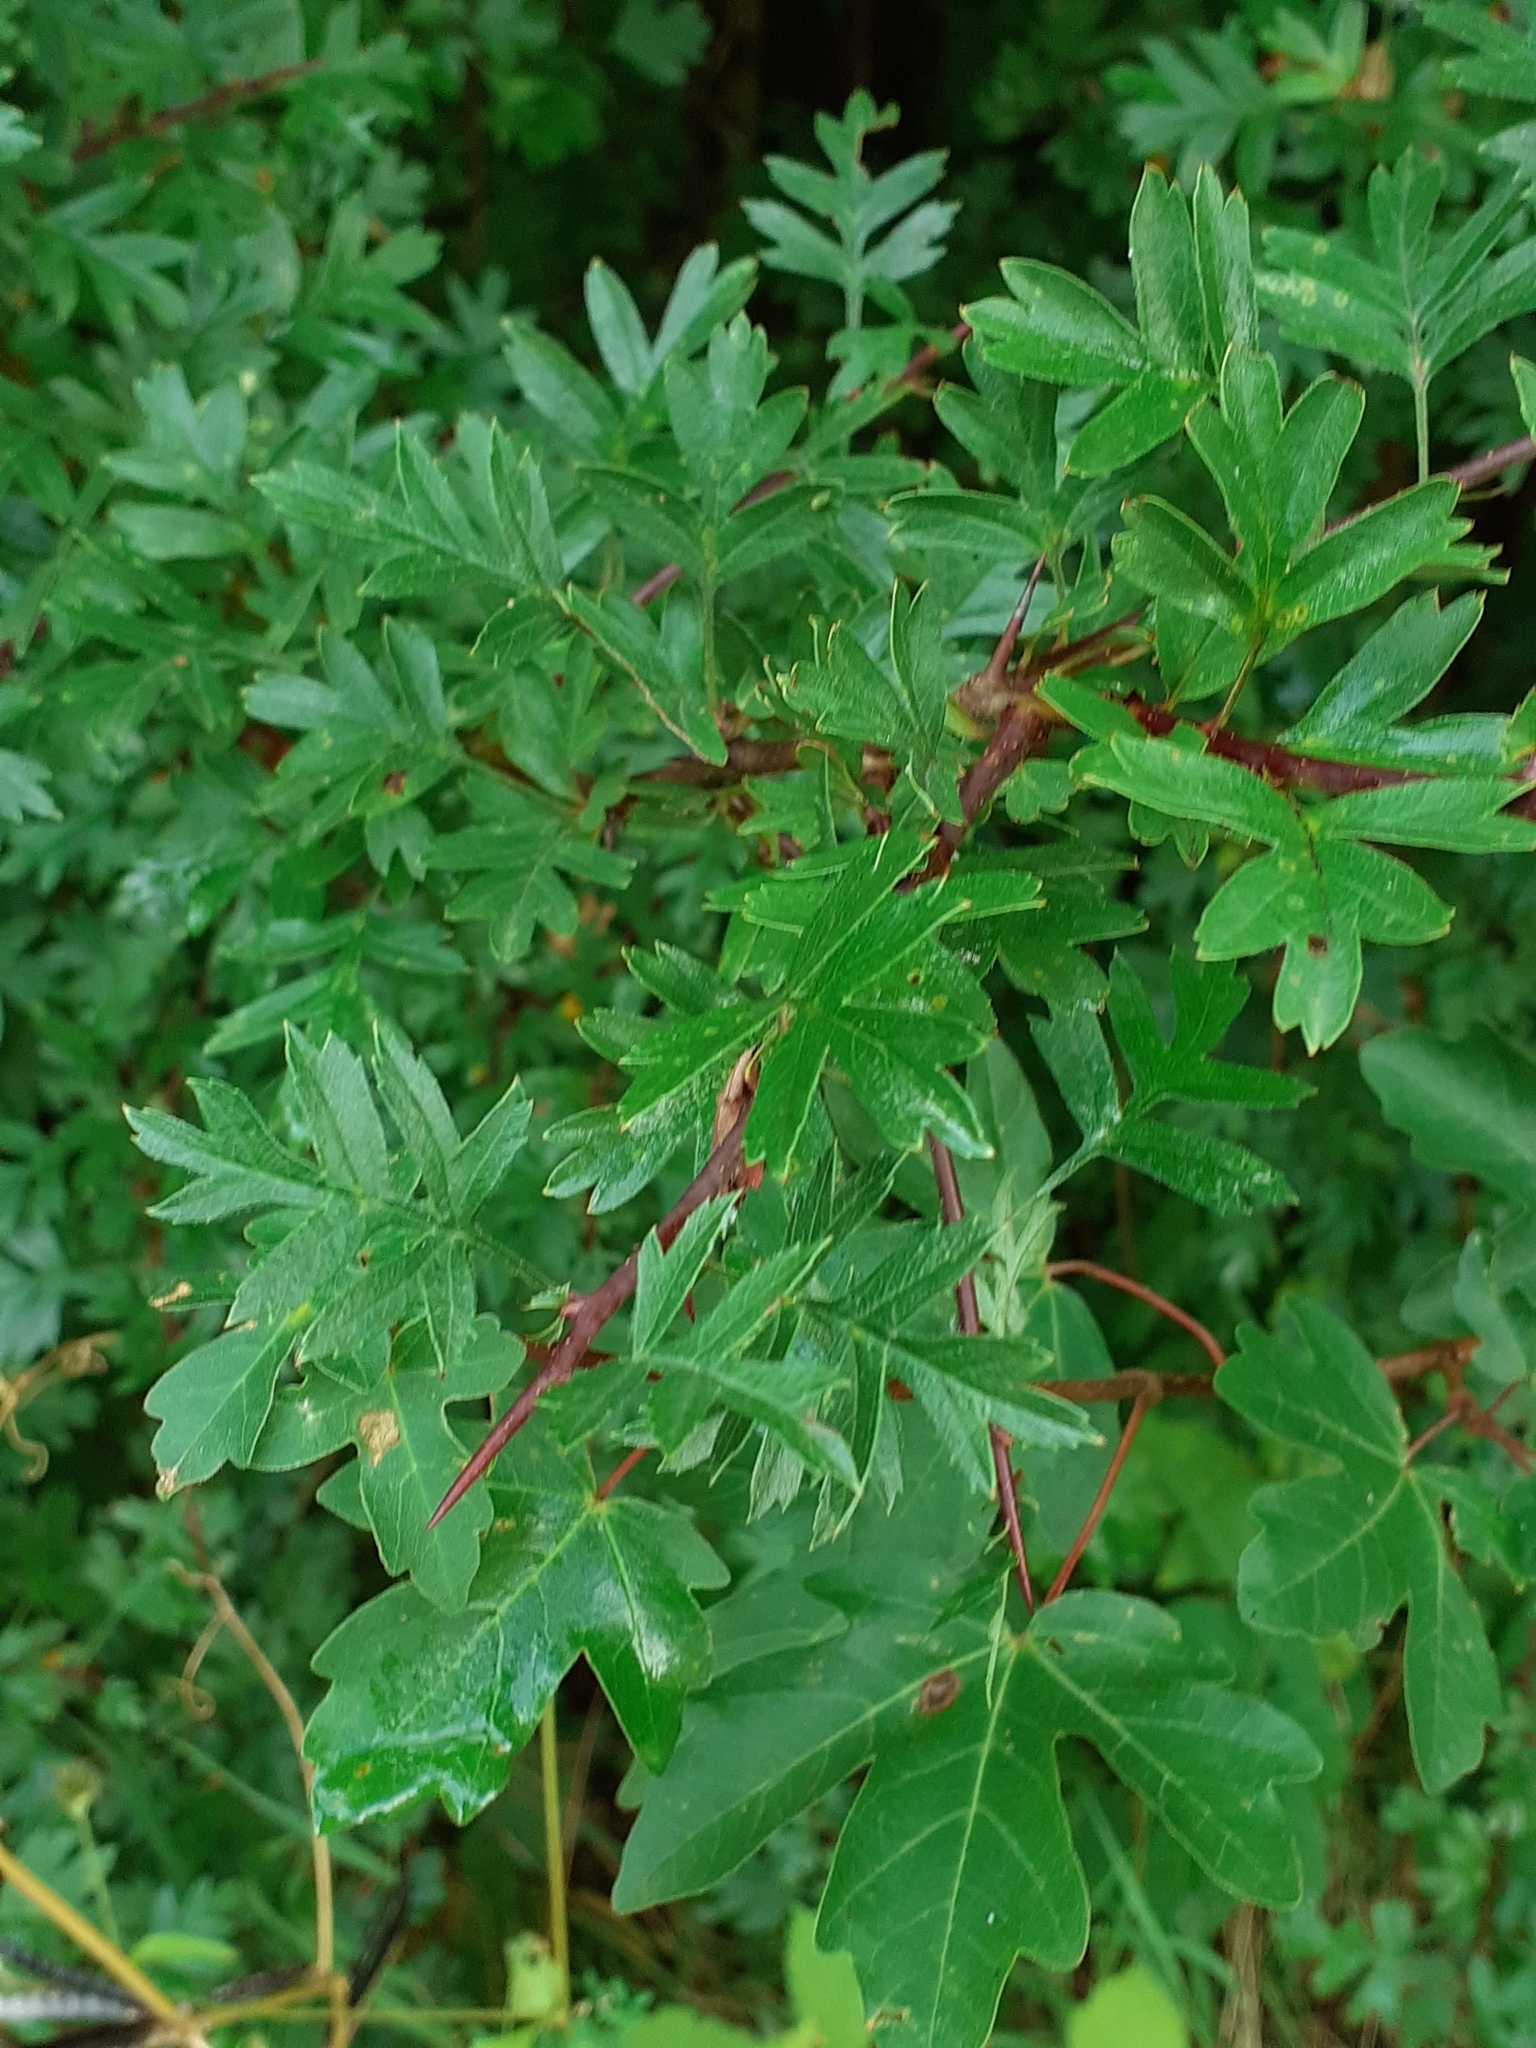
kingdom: Plantae
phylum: Tracheophyta
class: Magnoliopsida
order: Rosales
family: Rosaceae
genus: Crataegus
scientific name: Crataegus monogyna
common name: Hawthorn
